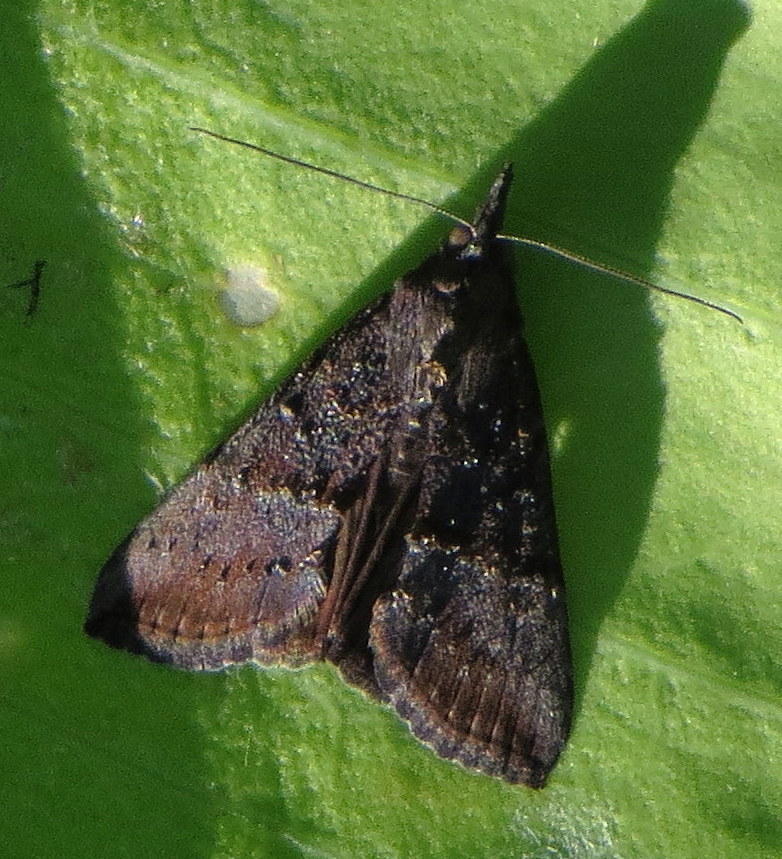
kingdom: Animalia
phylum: Arthropoda
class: Insecta
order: Lepidoptera
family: Erebidae
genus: Hypena
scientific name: Hypena scabra
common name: Green cloverworm
